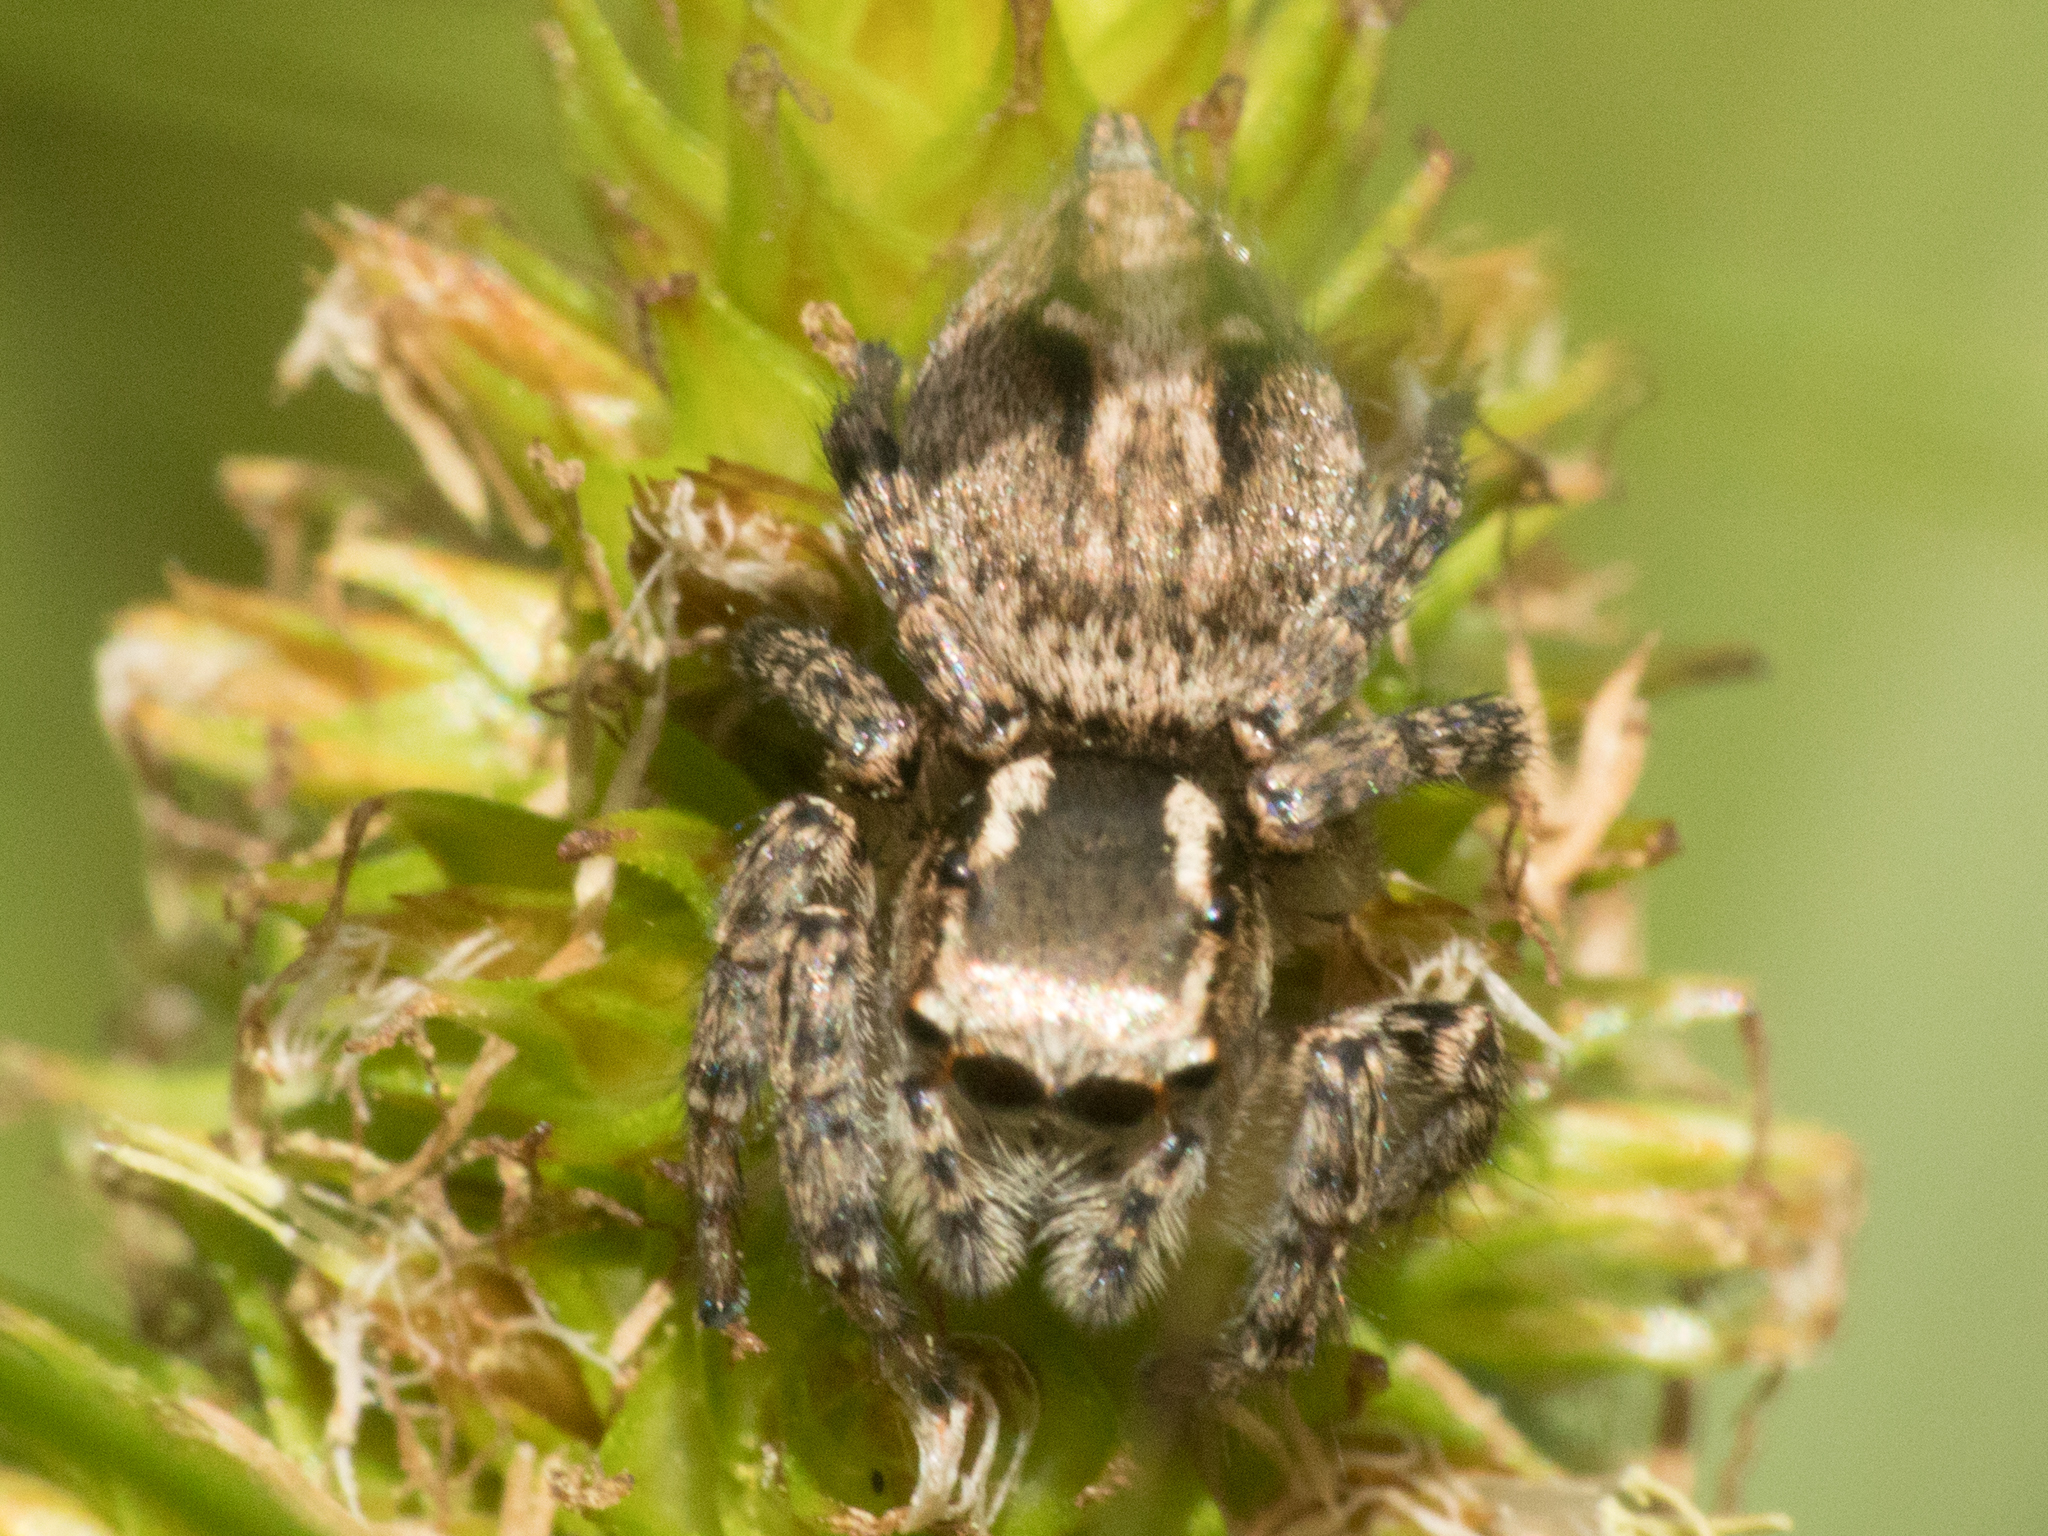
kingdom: Animalia
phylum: Arthropoda
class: Arachnida
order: Araneae
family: Salticidae
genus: Aphirape
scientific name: Aphirape misionensis
